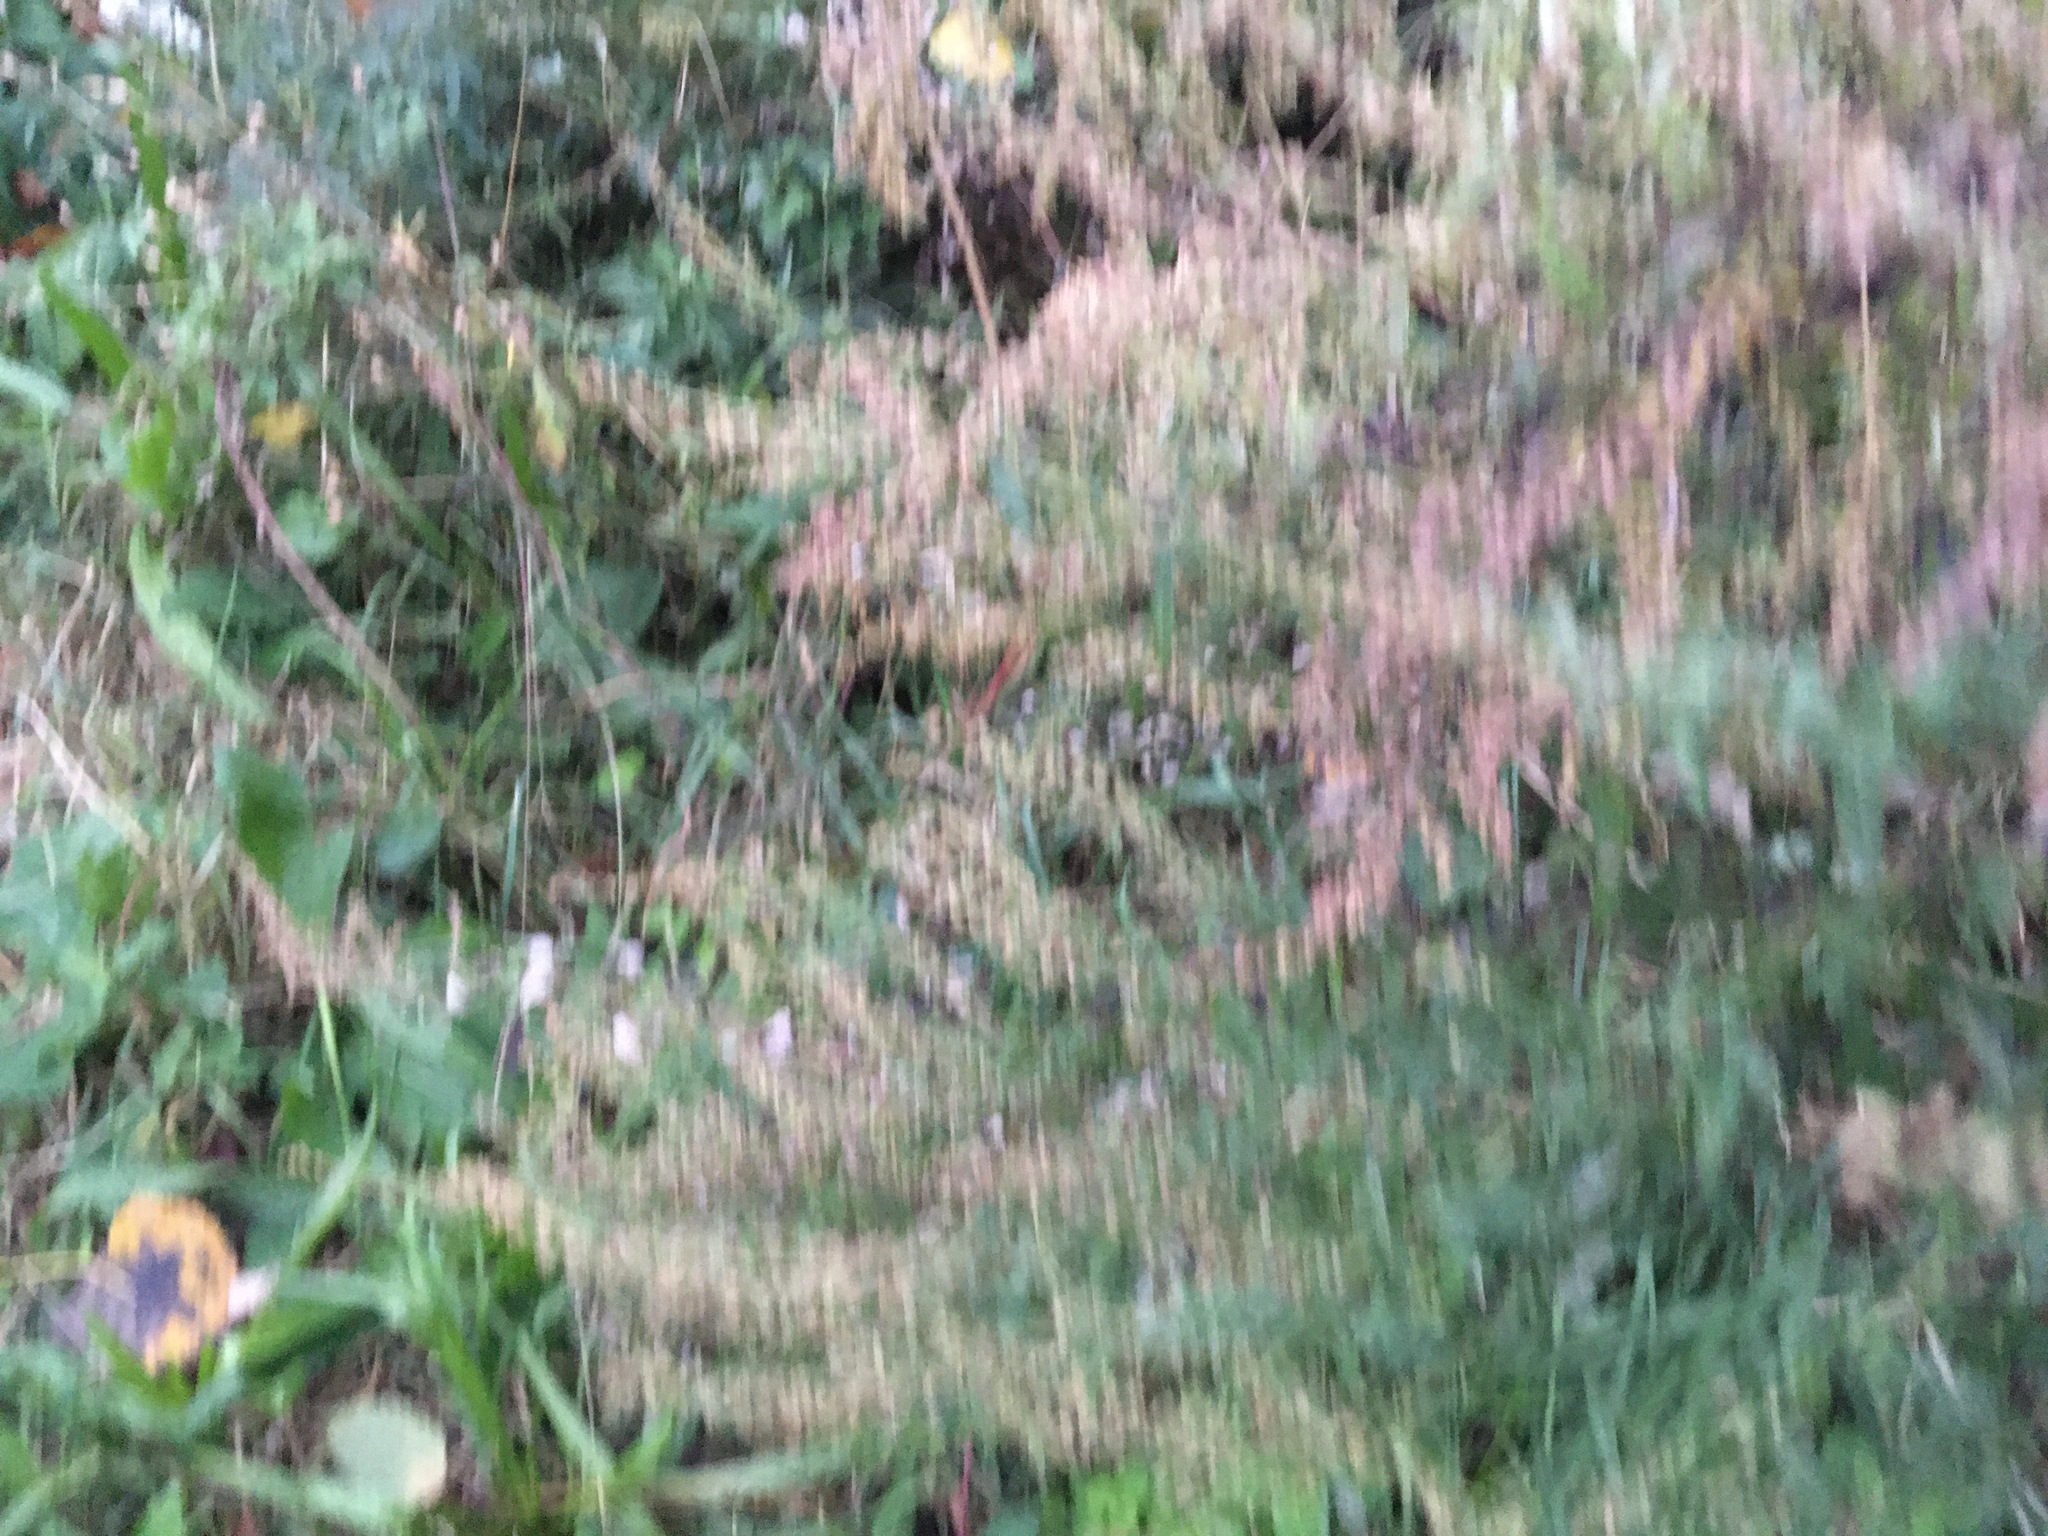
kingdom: Plantae
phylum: Tracheophyta
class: Magnoliopsida
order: Asterales
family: Asteraceae
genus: Artemisia
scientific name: Artemisia vulgaris
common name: Mugwort
